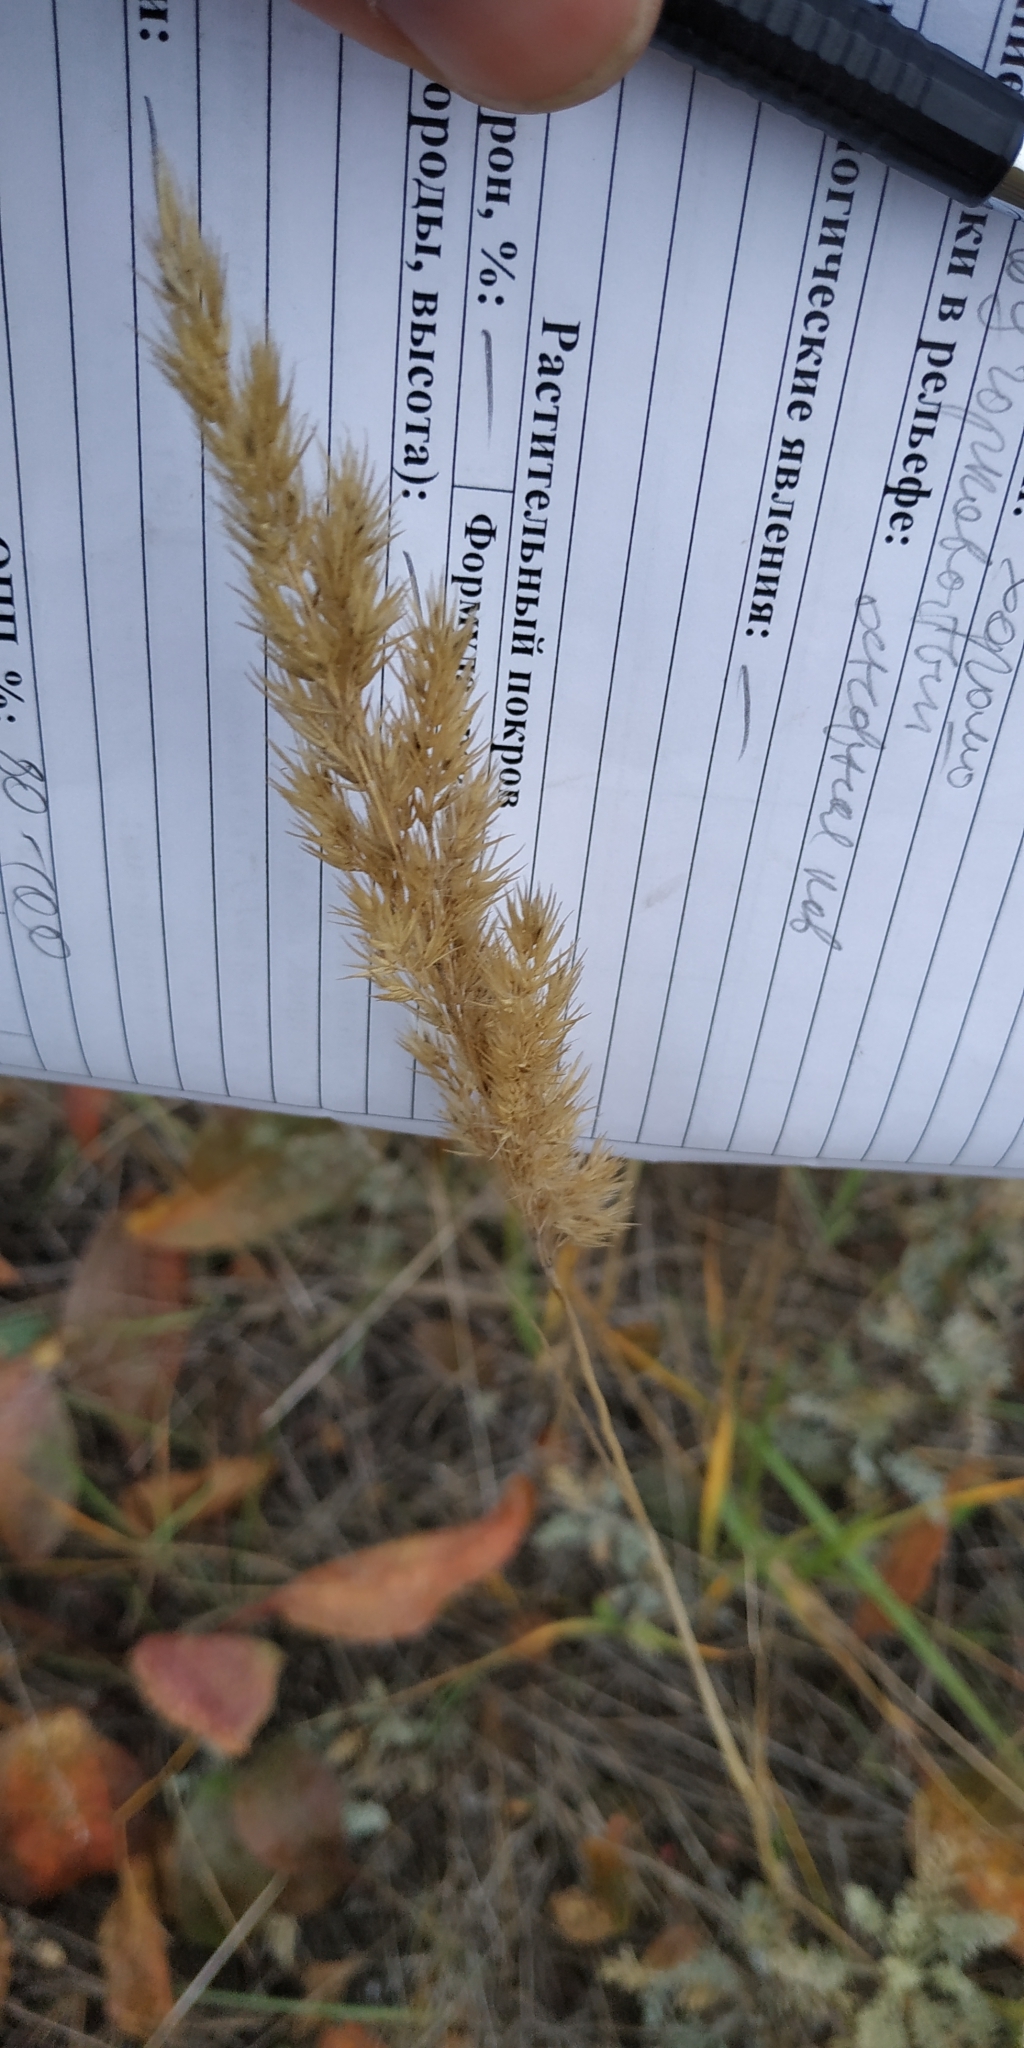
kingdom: Plantae
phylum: Tracheophyta
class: Liliopsida
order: Poales
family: Poaceae
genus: Calamagrostis
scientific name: Calamagrostis epigejos
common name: Wood small-reed
